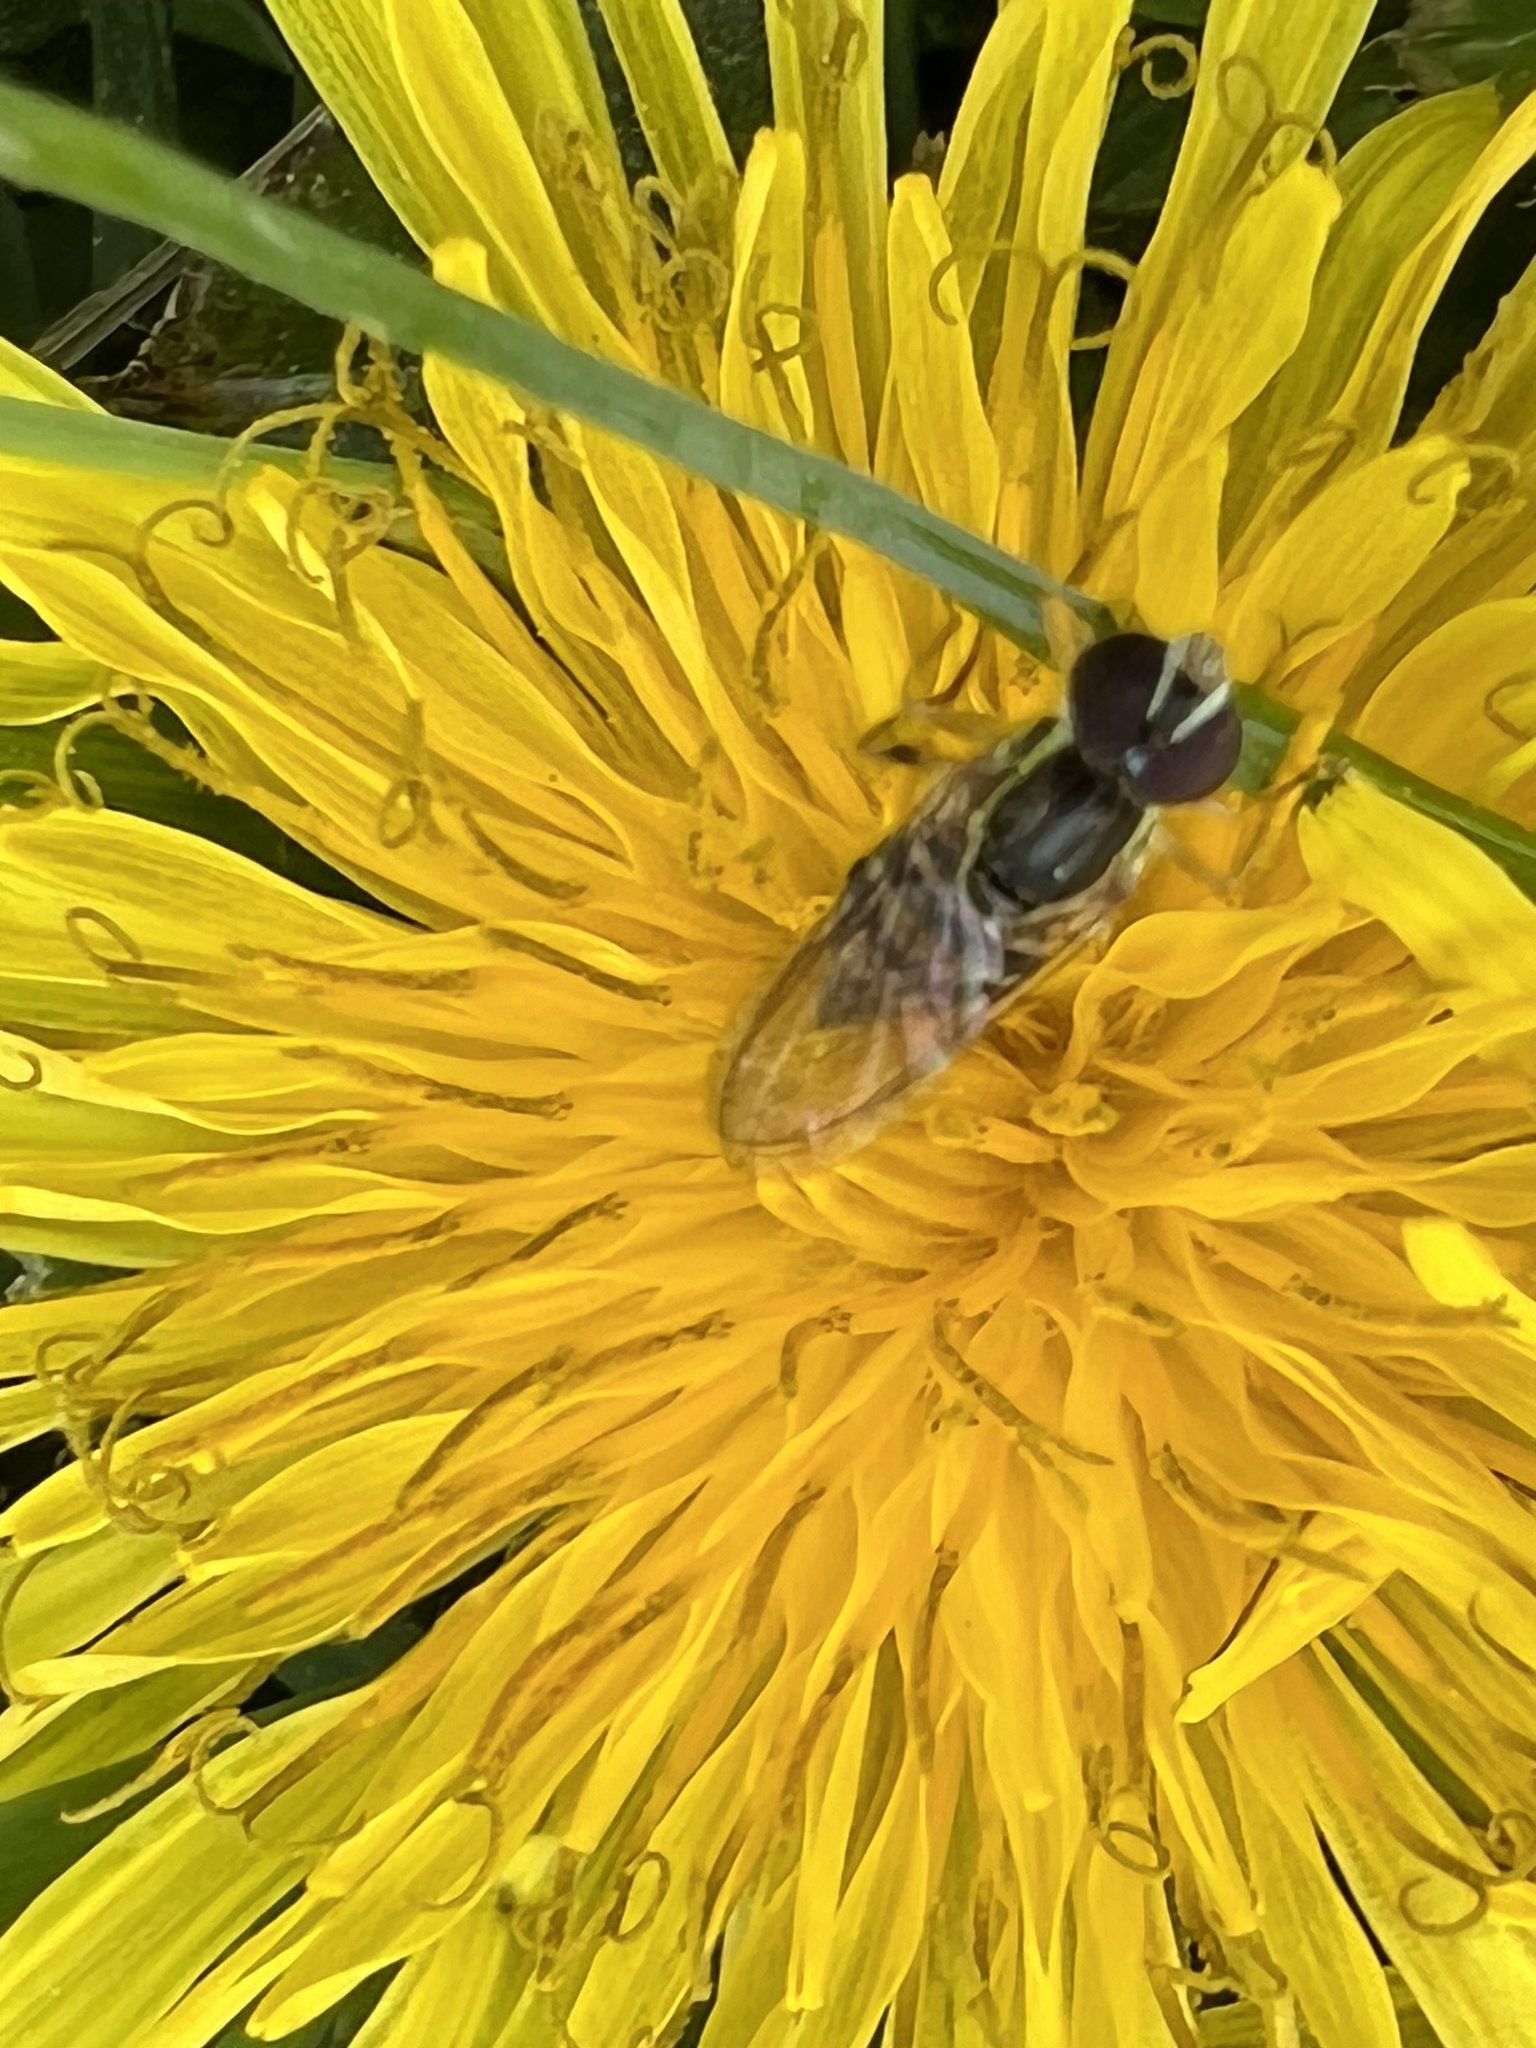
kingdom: Animalia
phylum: Arthropoda
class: Insecta
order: Diptera
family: Syrphidae
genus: Toxomerus
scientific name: Toxomerus geminatus
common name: Eastern calligrapher
